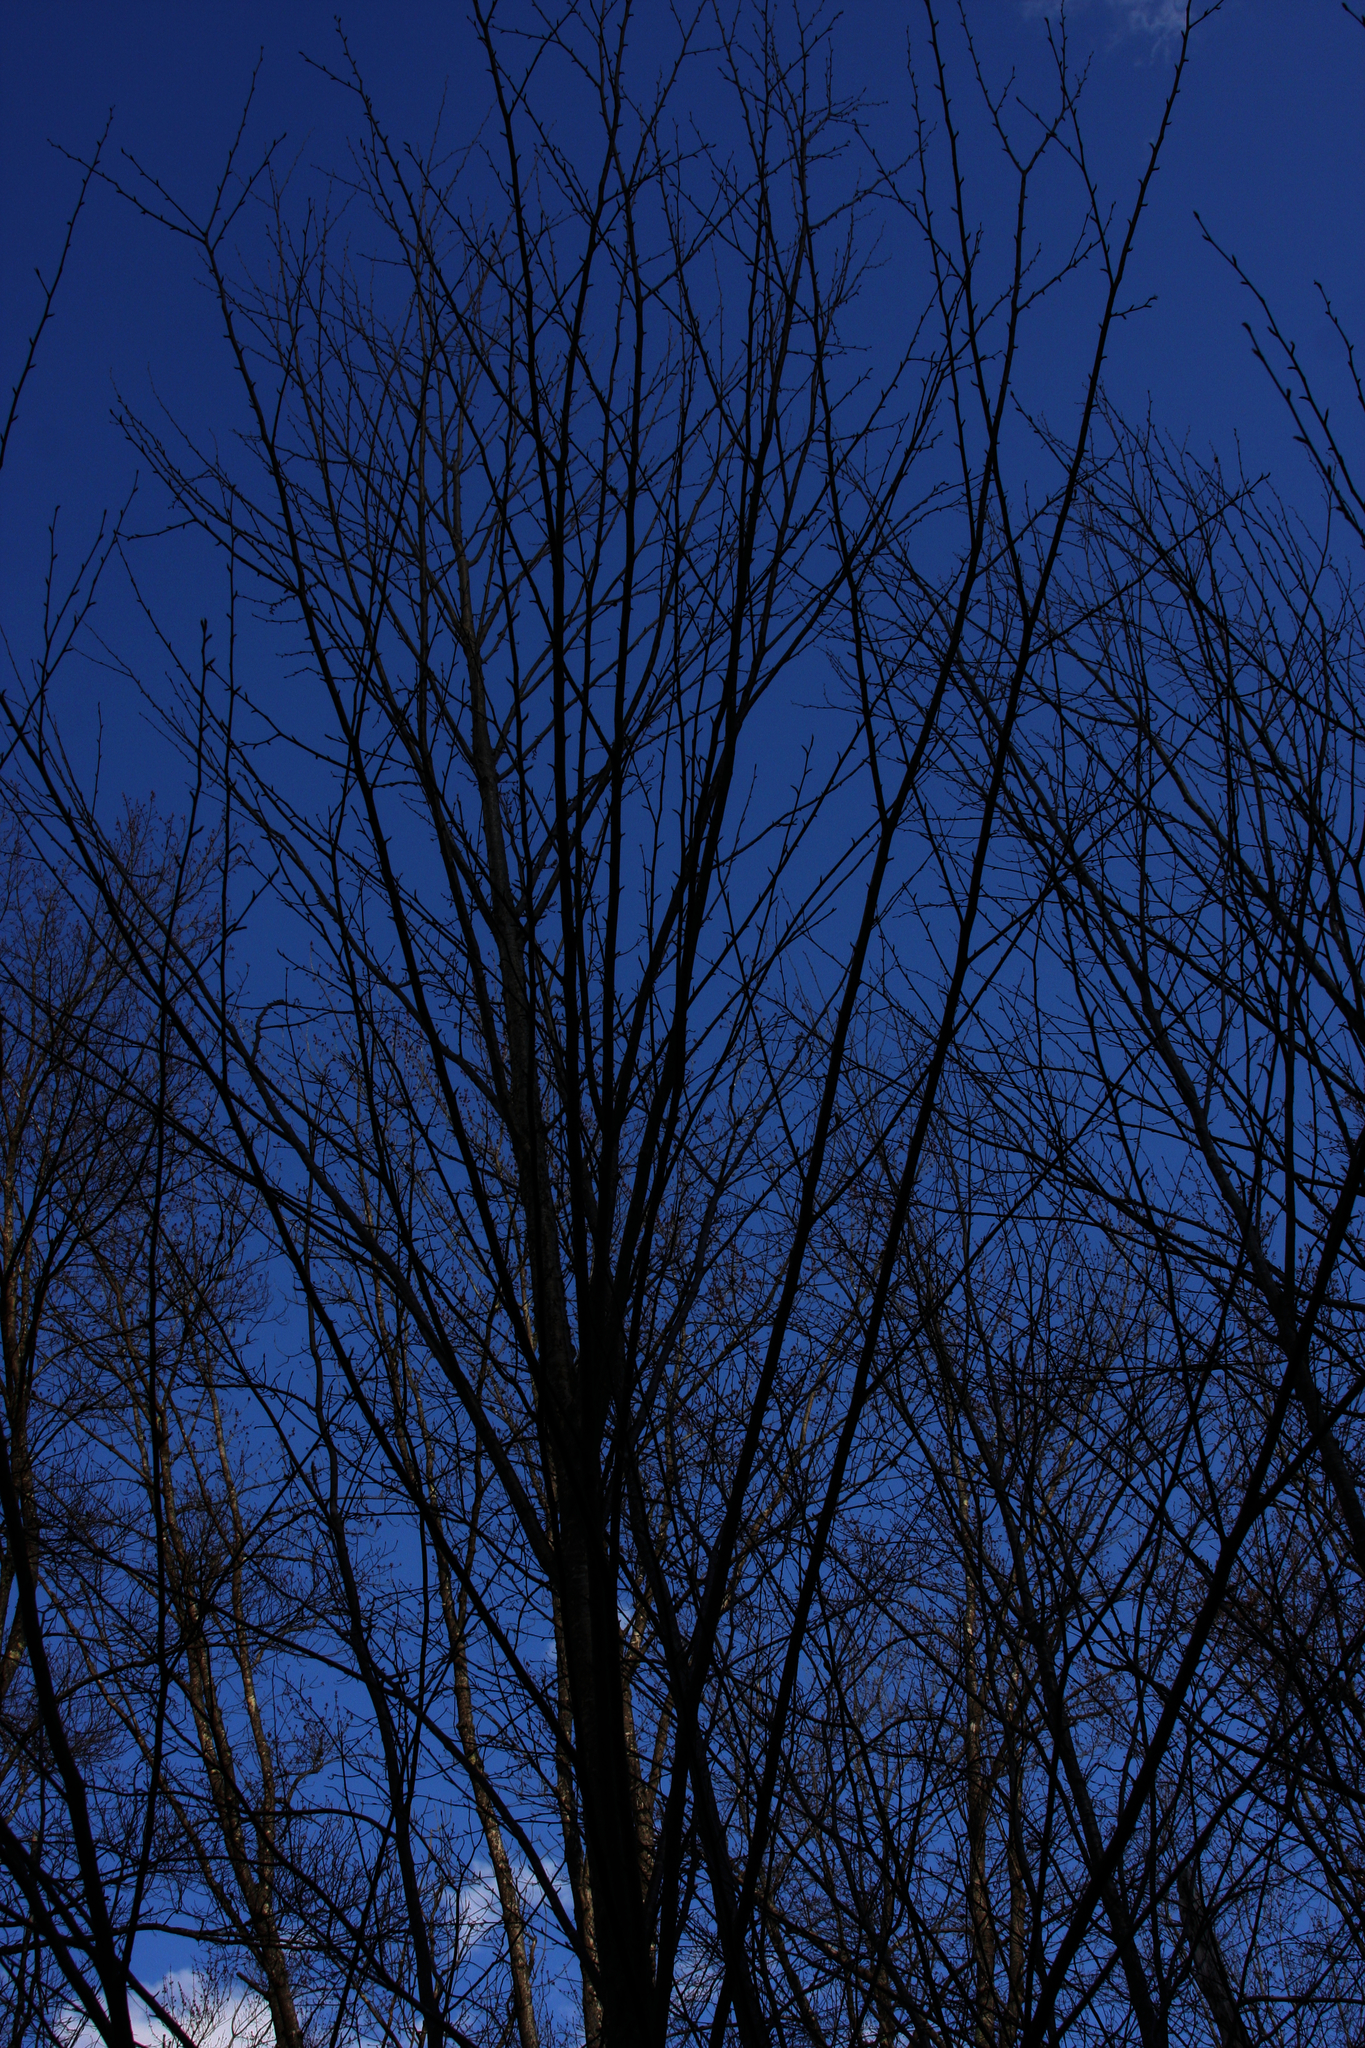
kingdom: Plantae
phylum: Tracheophyta
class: Magnoliopsida
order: Fagales
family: Betulaceae
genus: Betula
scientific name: Betula alleghaniensis
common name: Yellow birch
